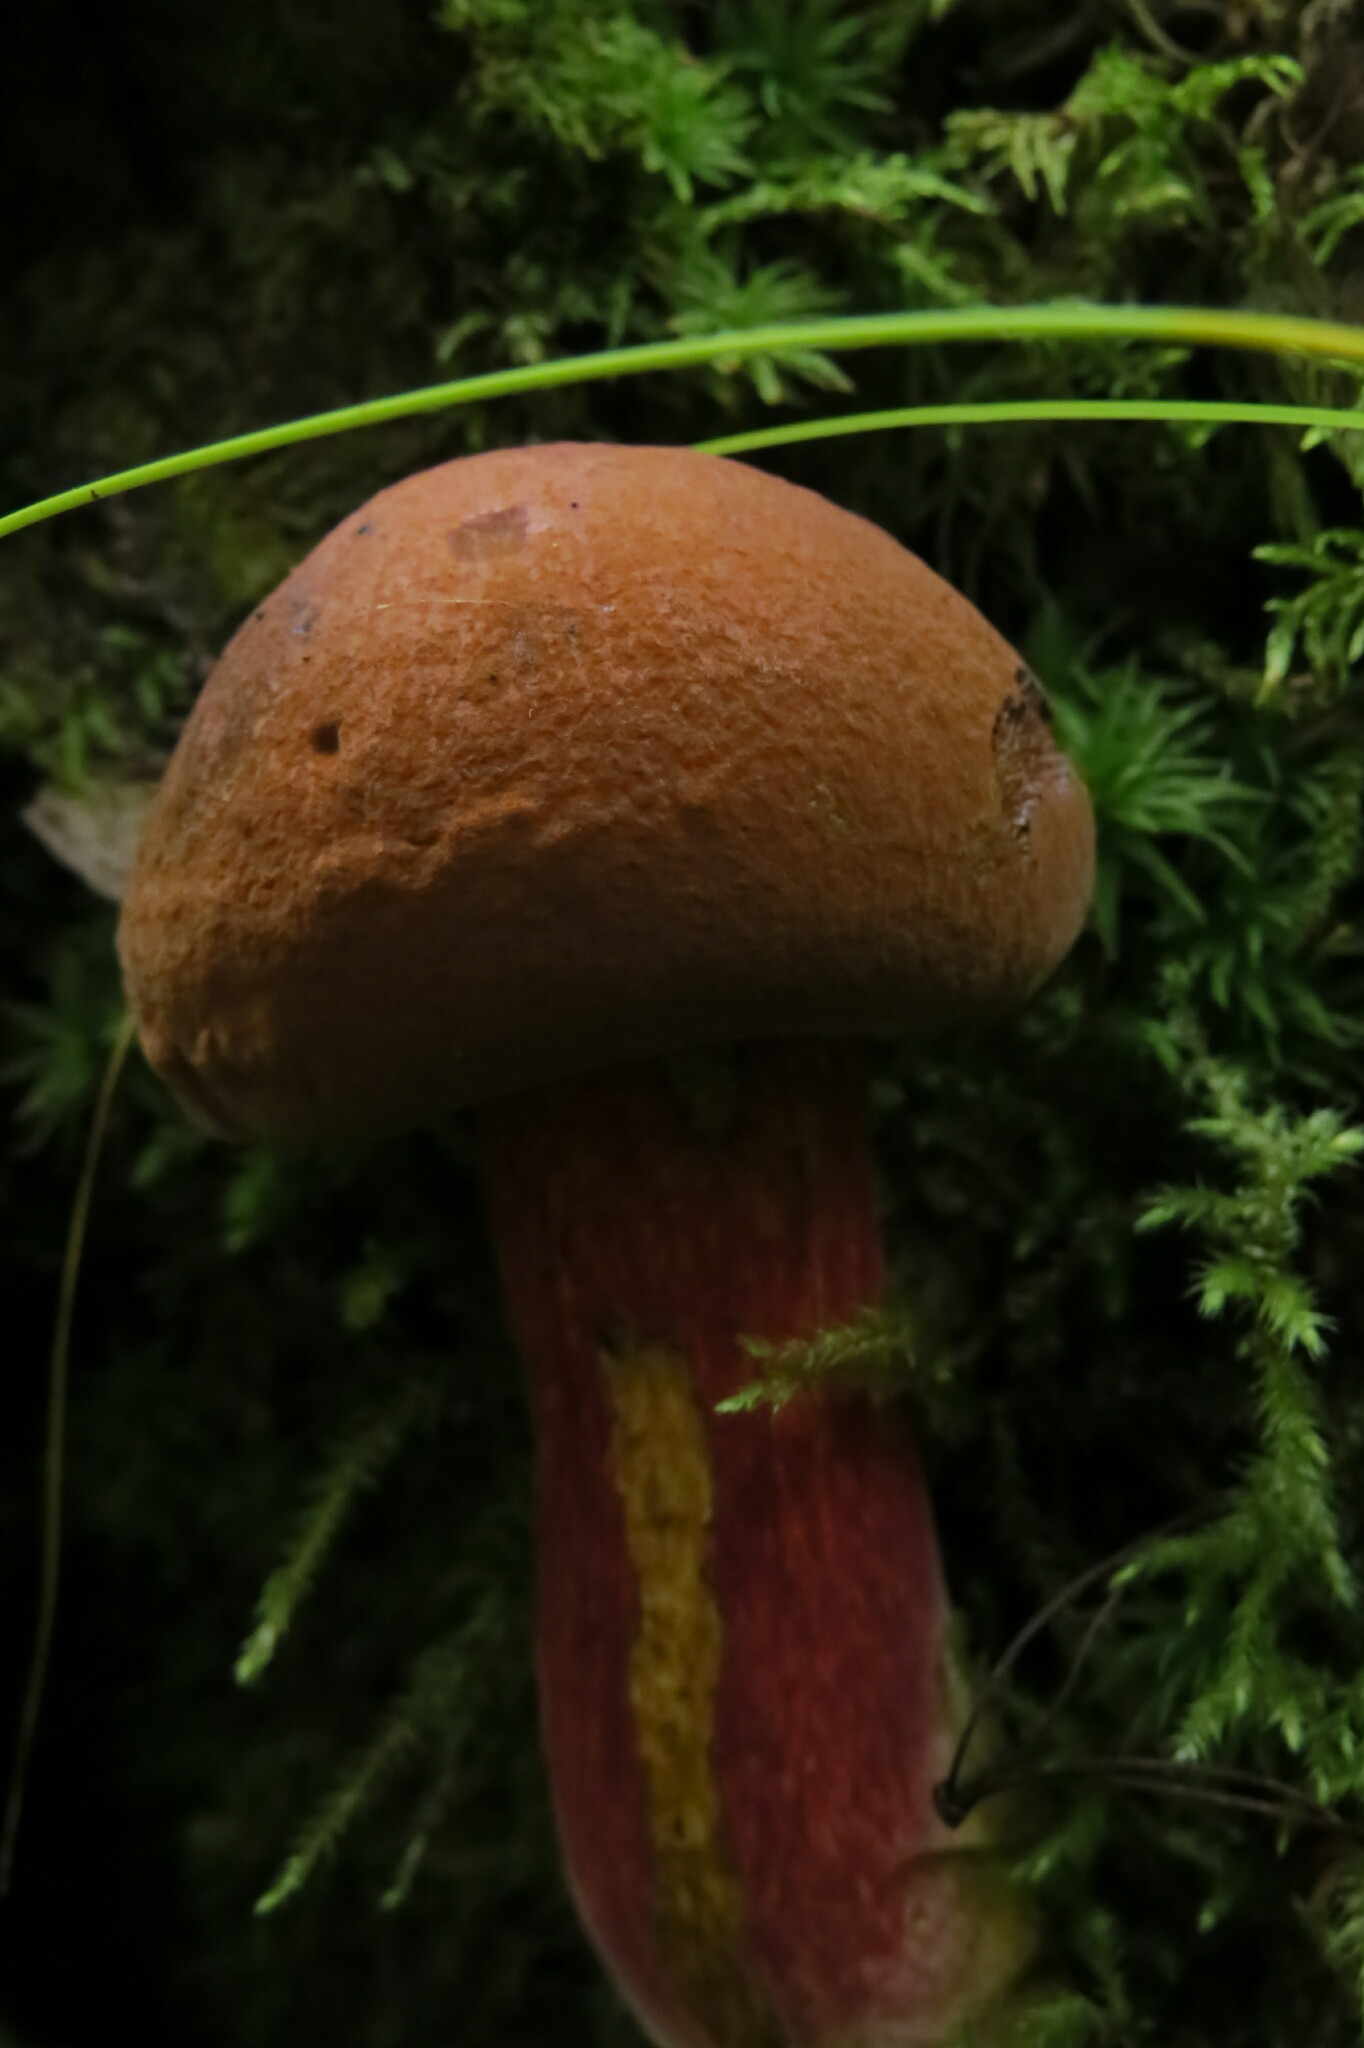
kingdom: Fungi
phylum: Basidiomycota
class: Agaricomycetes
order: Boletales
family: Boletaceae
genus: Boletus
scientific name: Boletus subvelutipes
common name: Red-mouth bolete
